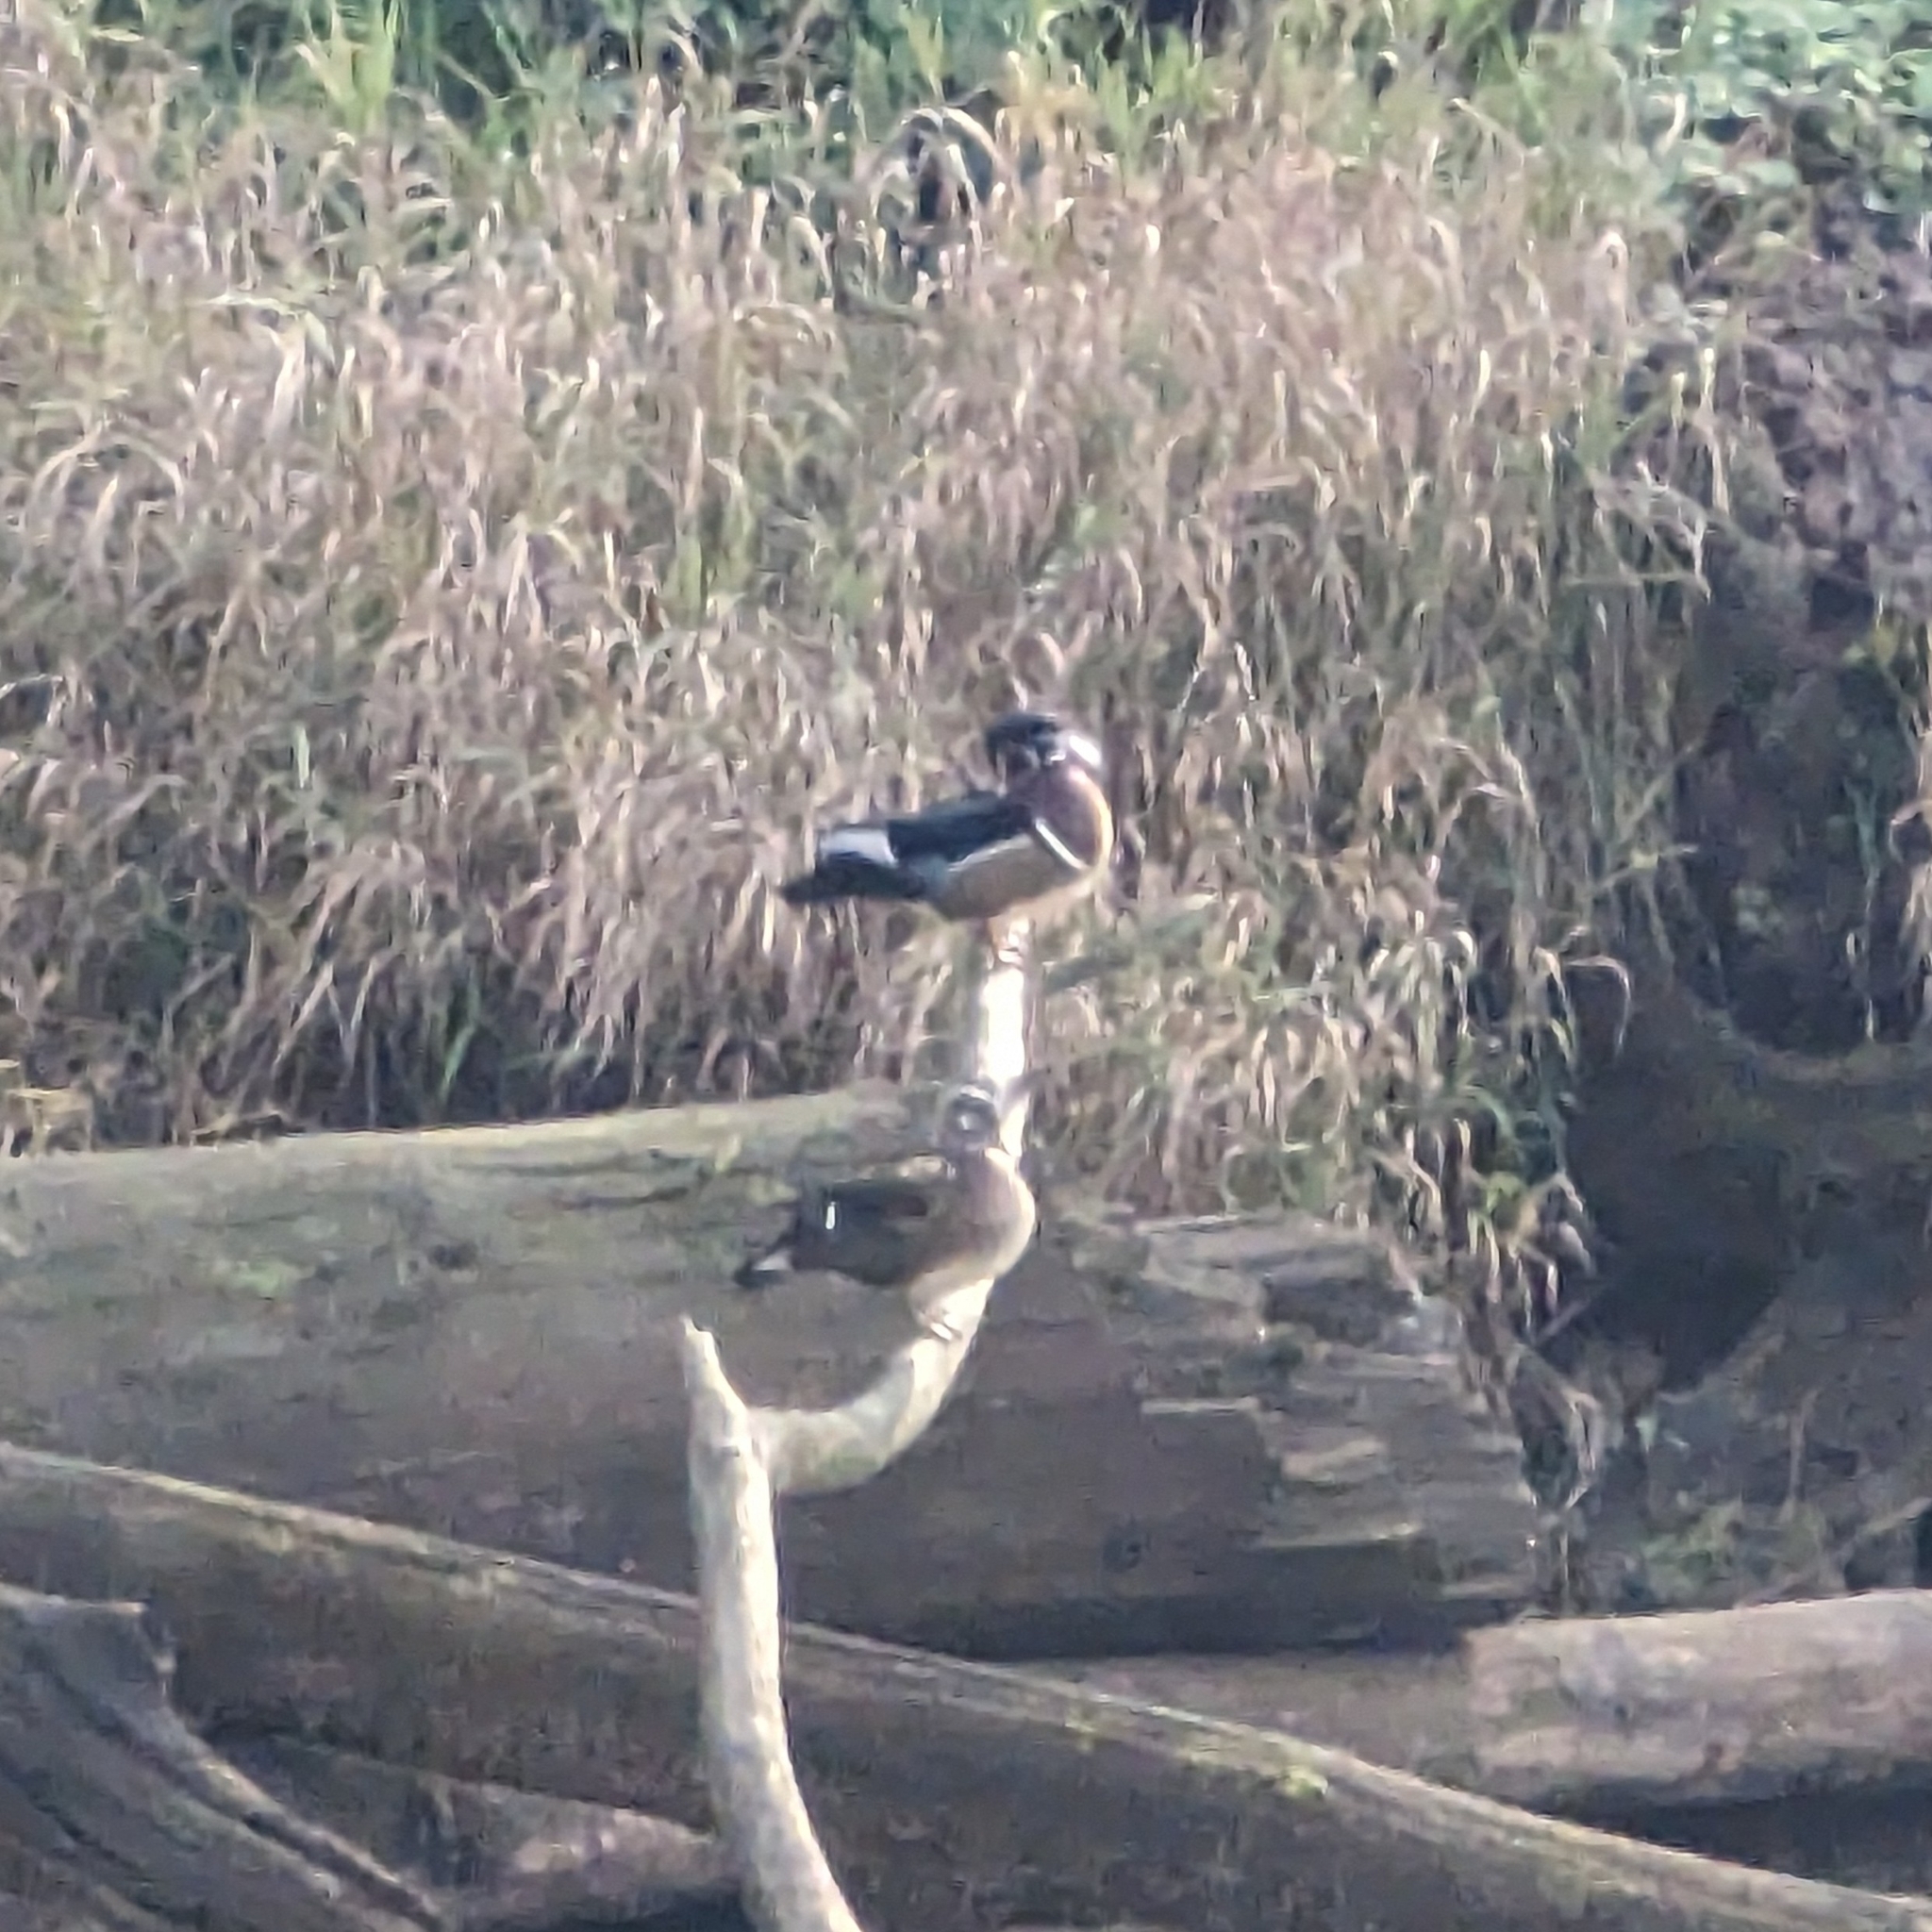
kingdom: Animalia
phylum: Chordata
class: Aves
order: Anseriformes
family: Anatidae
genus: Aix
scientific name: Aix sponsa
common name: Wood duck
